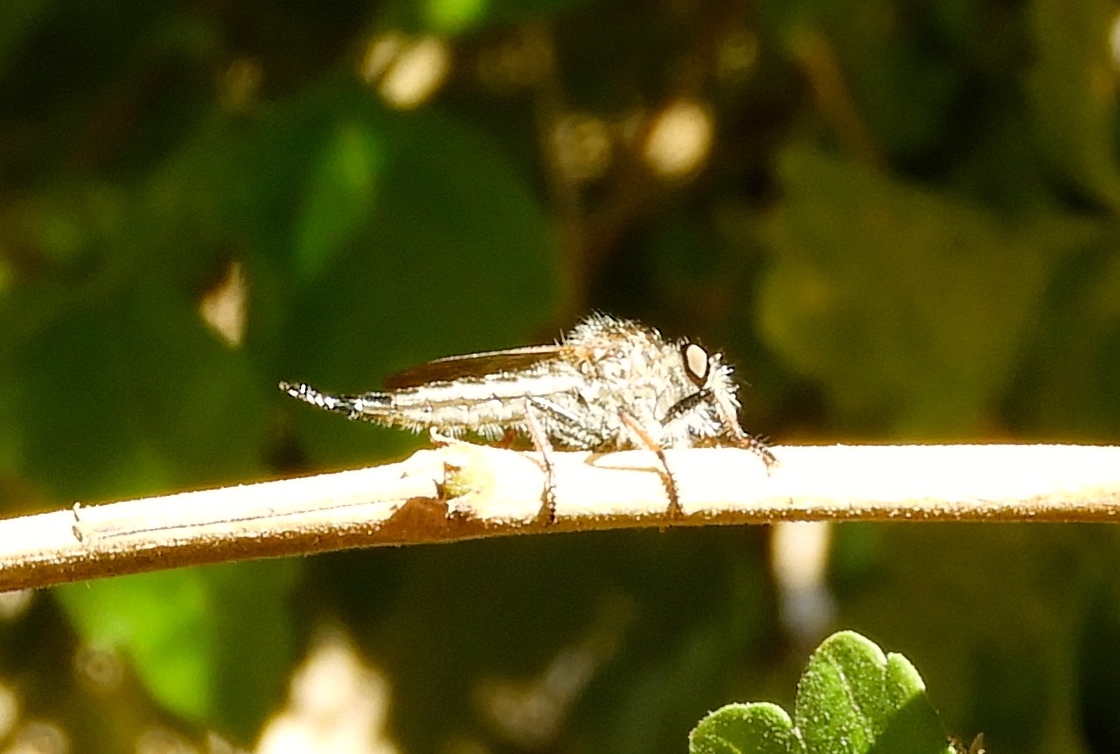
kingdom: Animalia
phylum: Arthropoda
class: Insecta
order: Diptera
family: Asilidae
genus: Efferia
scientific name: Efferia
